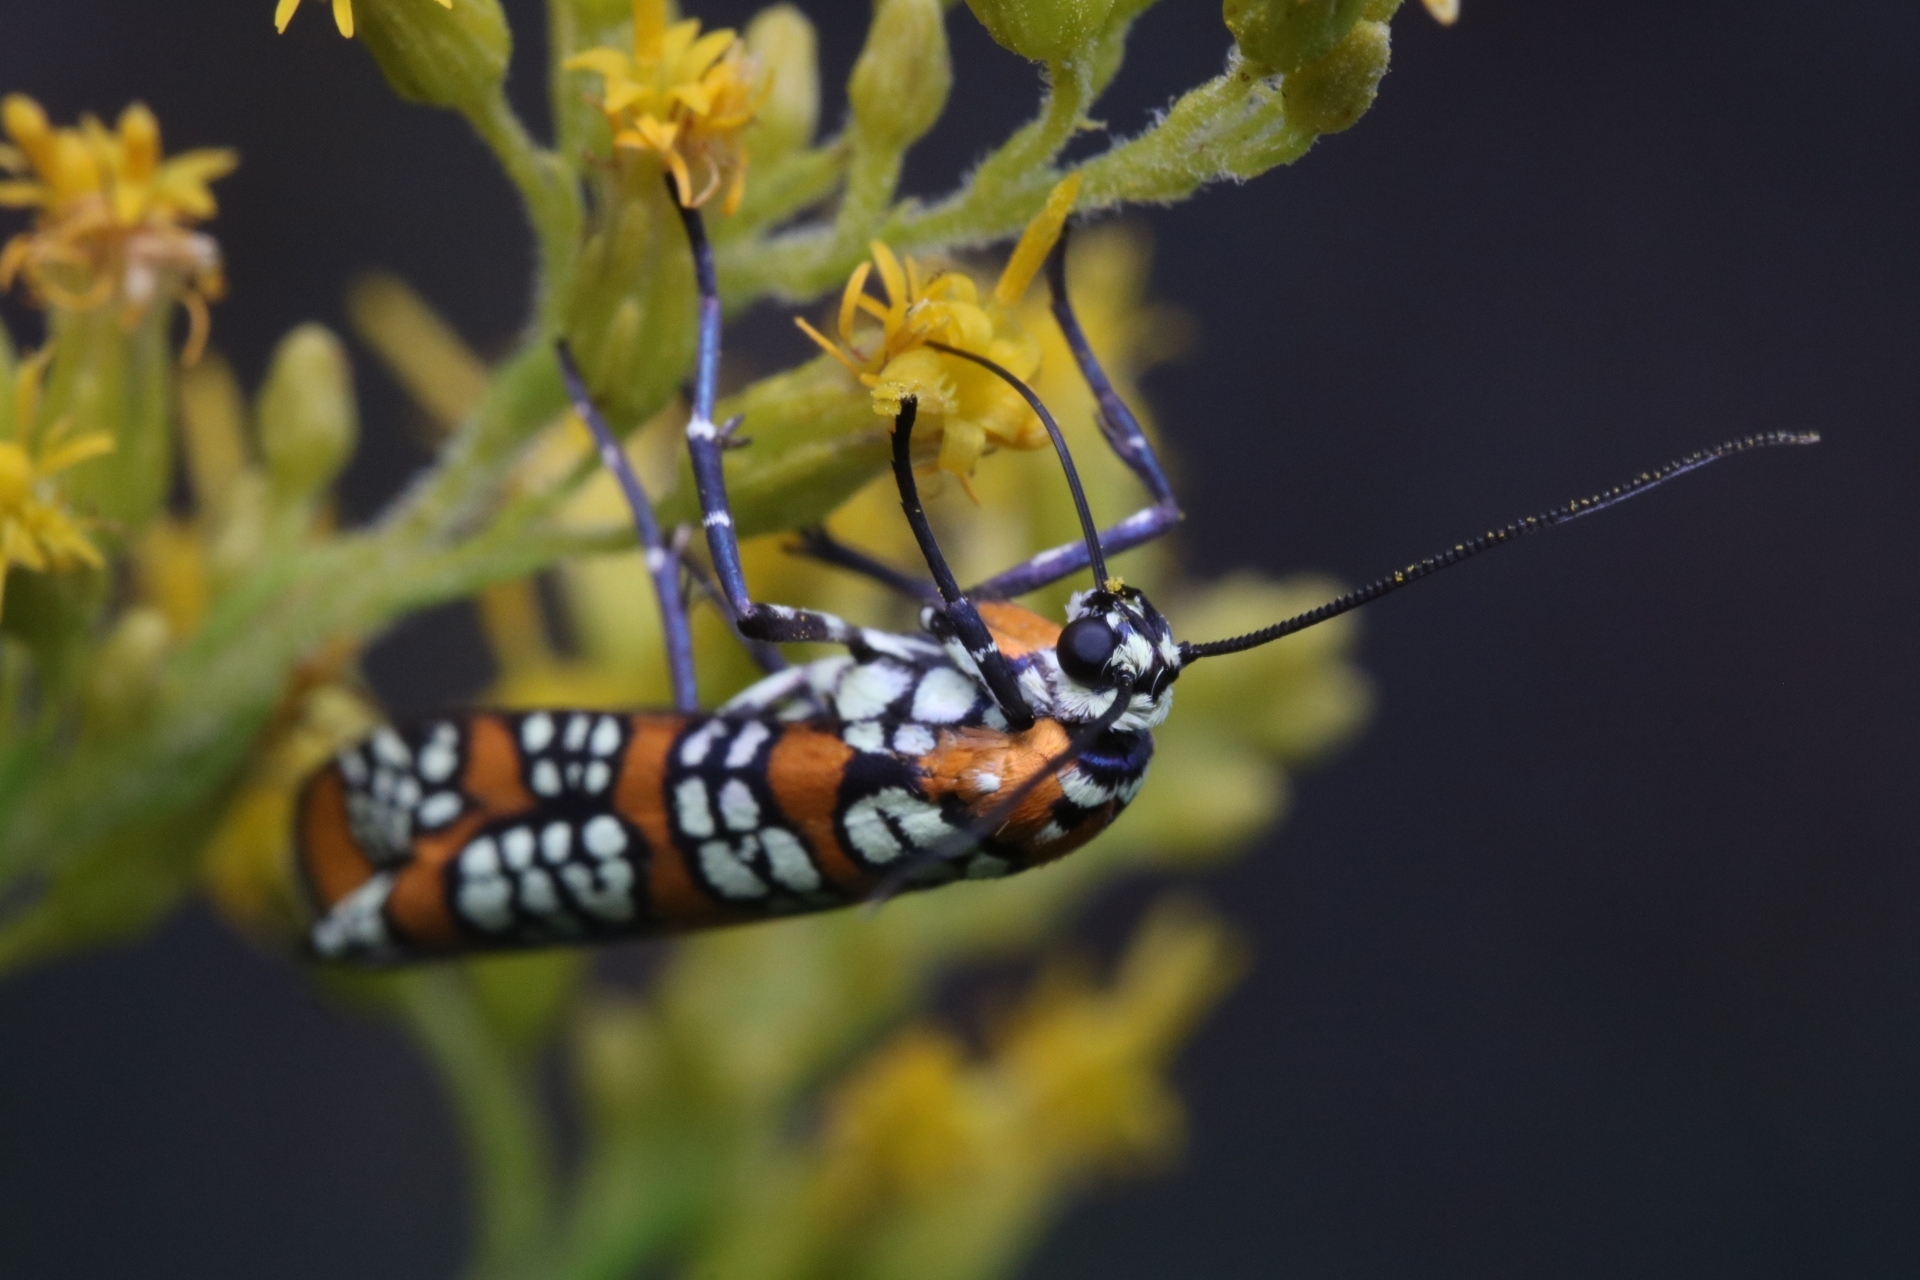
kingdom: Animalia
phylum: Arthropoda
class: Insecta
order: Lepidoptera
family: Attevidae
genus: Atteva
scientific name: Atteva punctella
